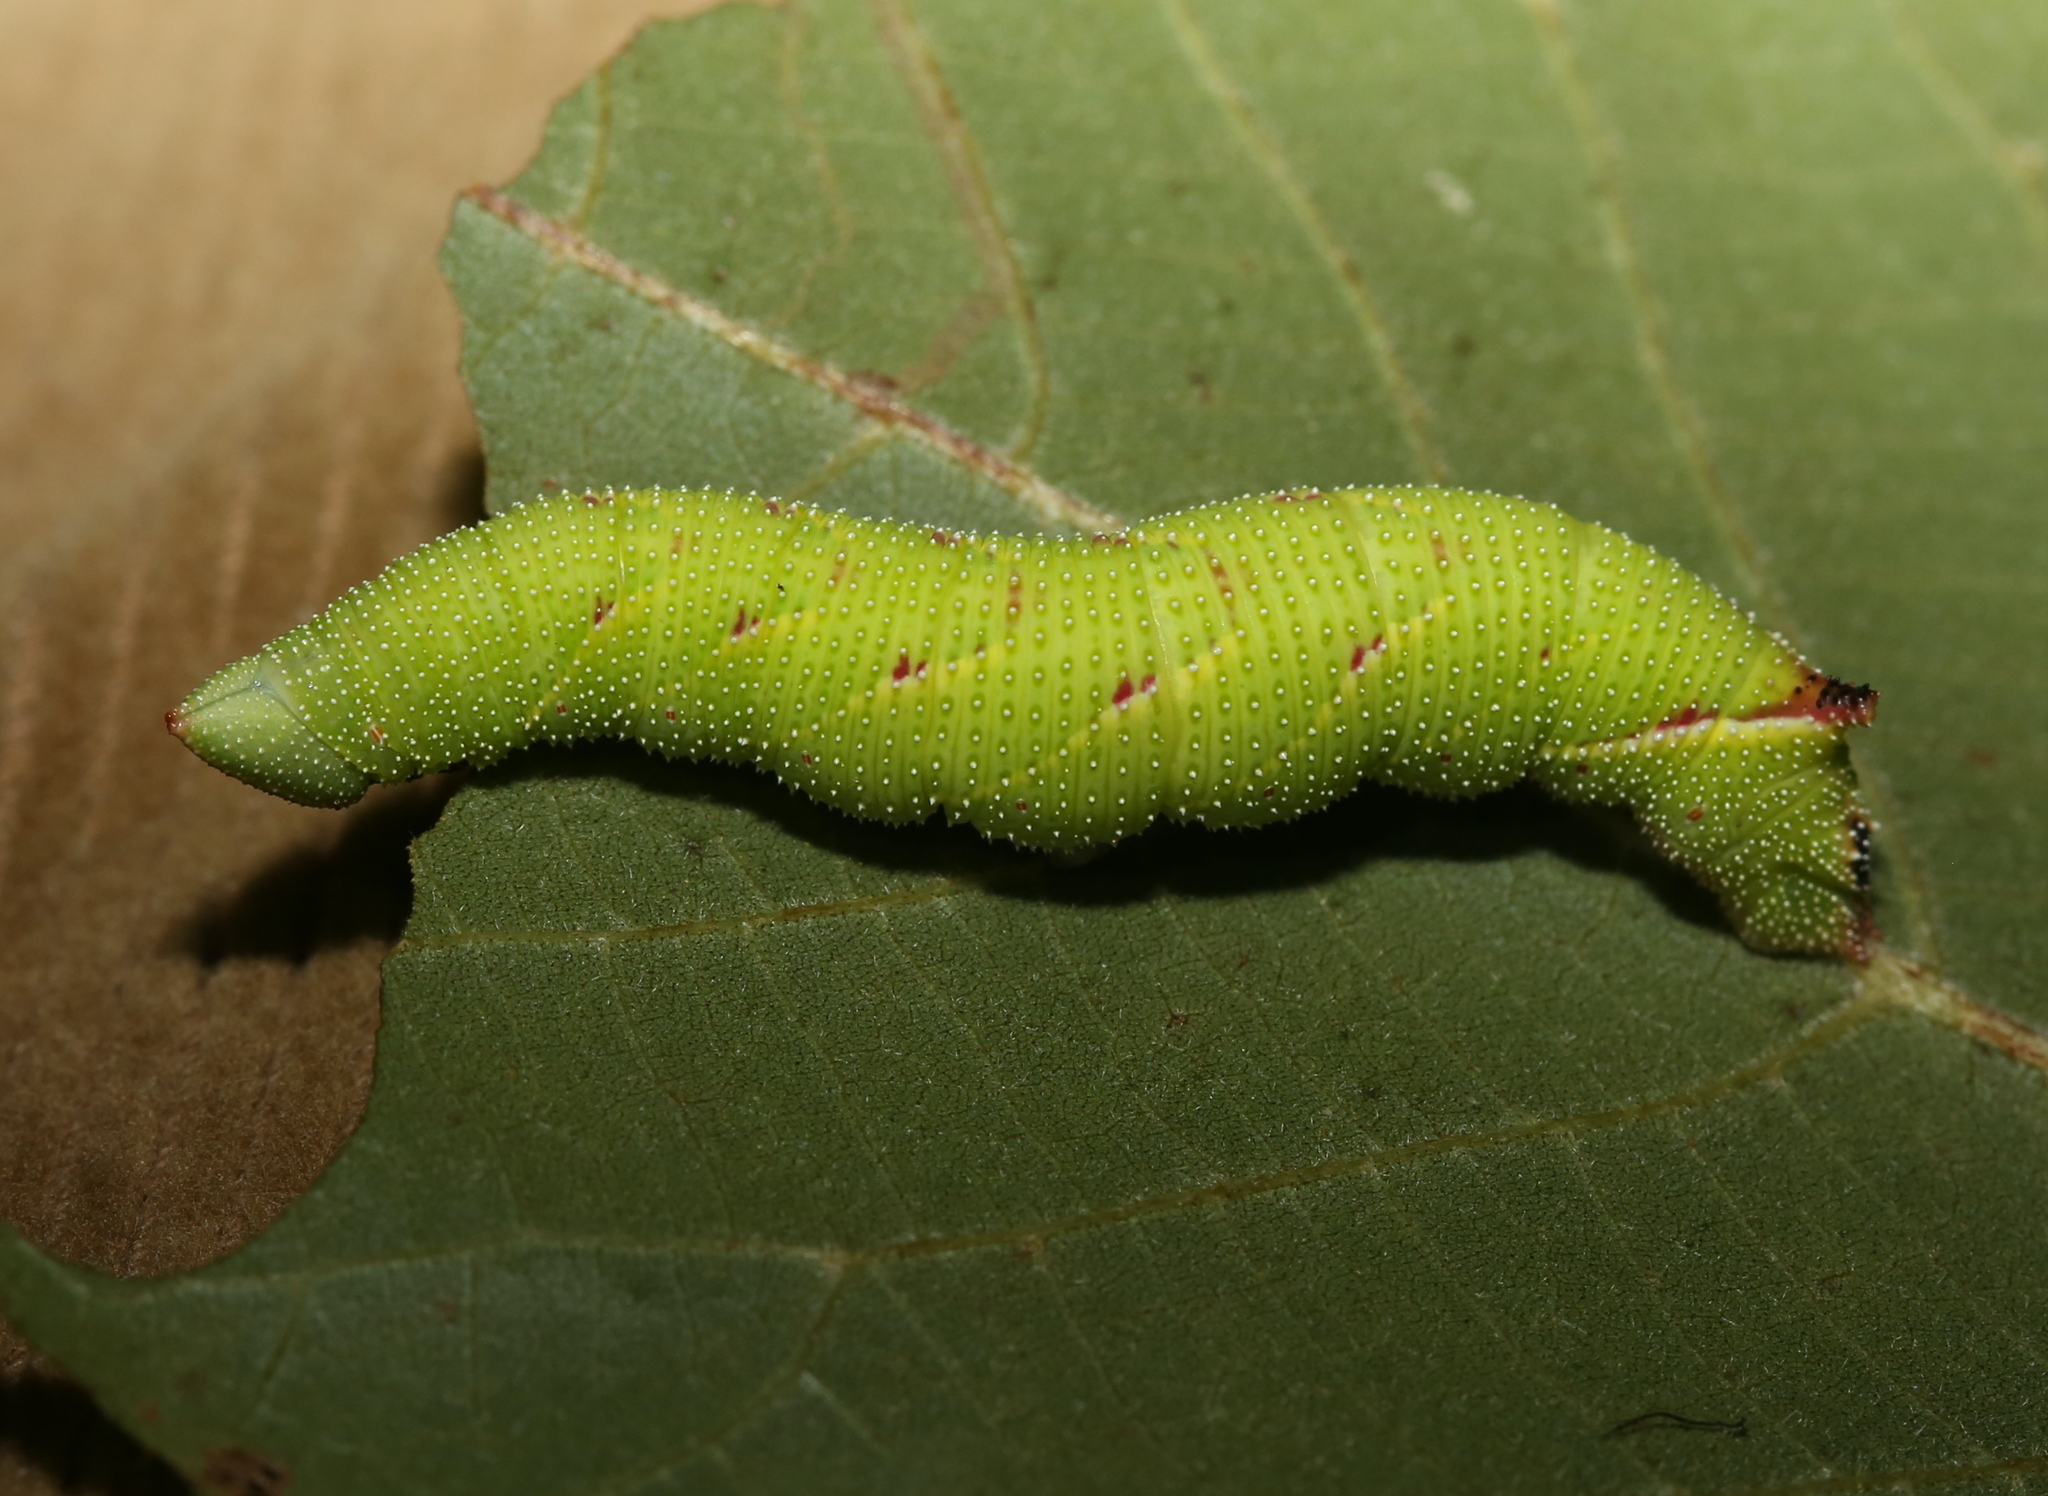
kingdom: Animalia
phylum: Arthropoda
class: Insecta
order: Lepidoptera
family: Sphingidae
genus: Amorpha
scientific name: Amorpha juglandis
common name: Walnut sphinx
